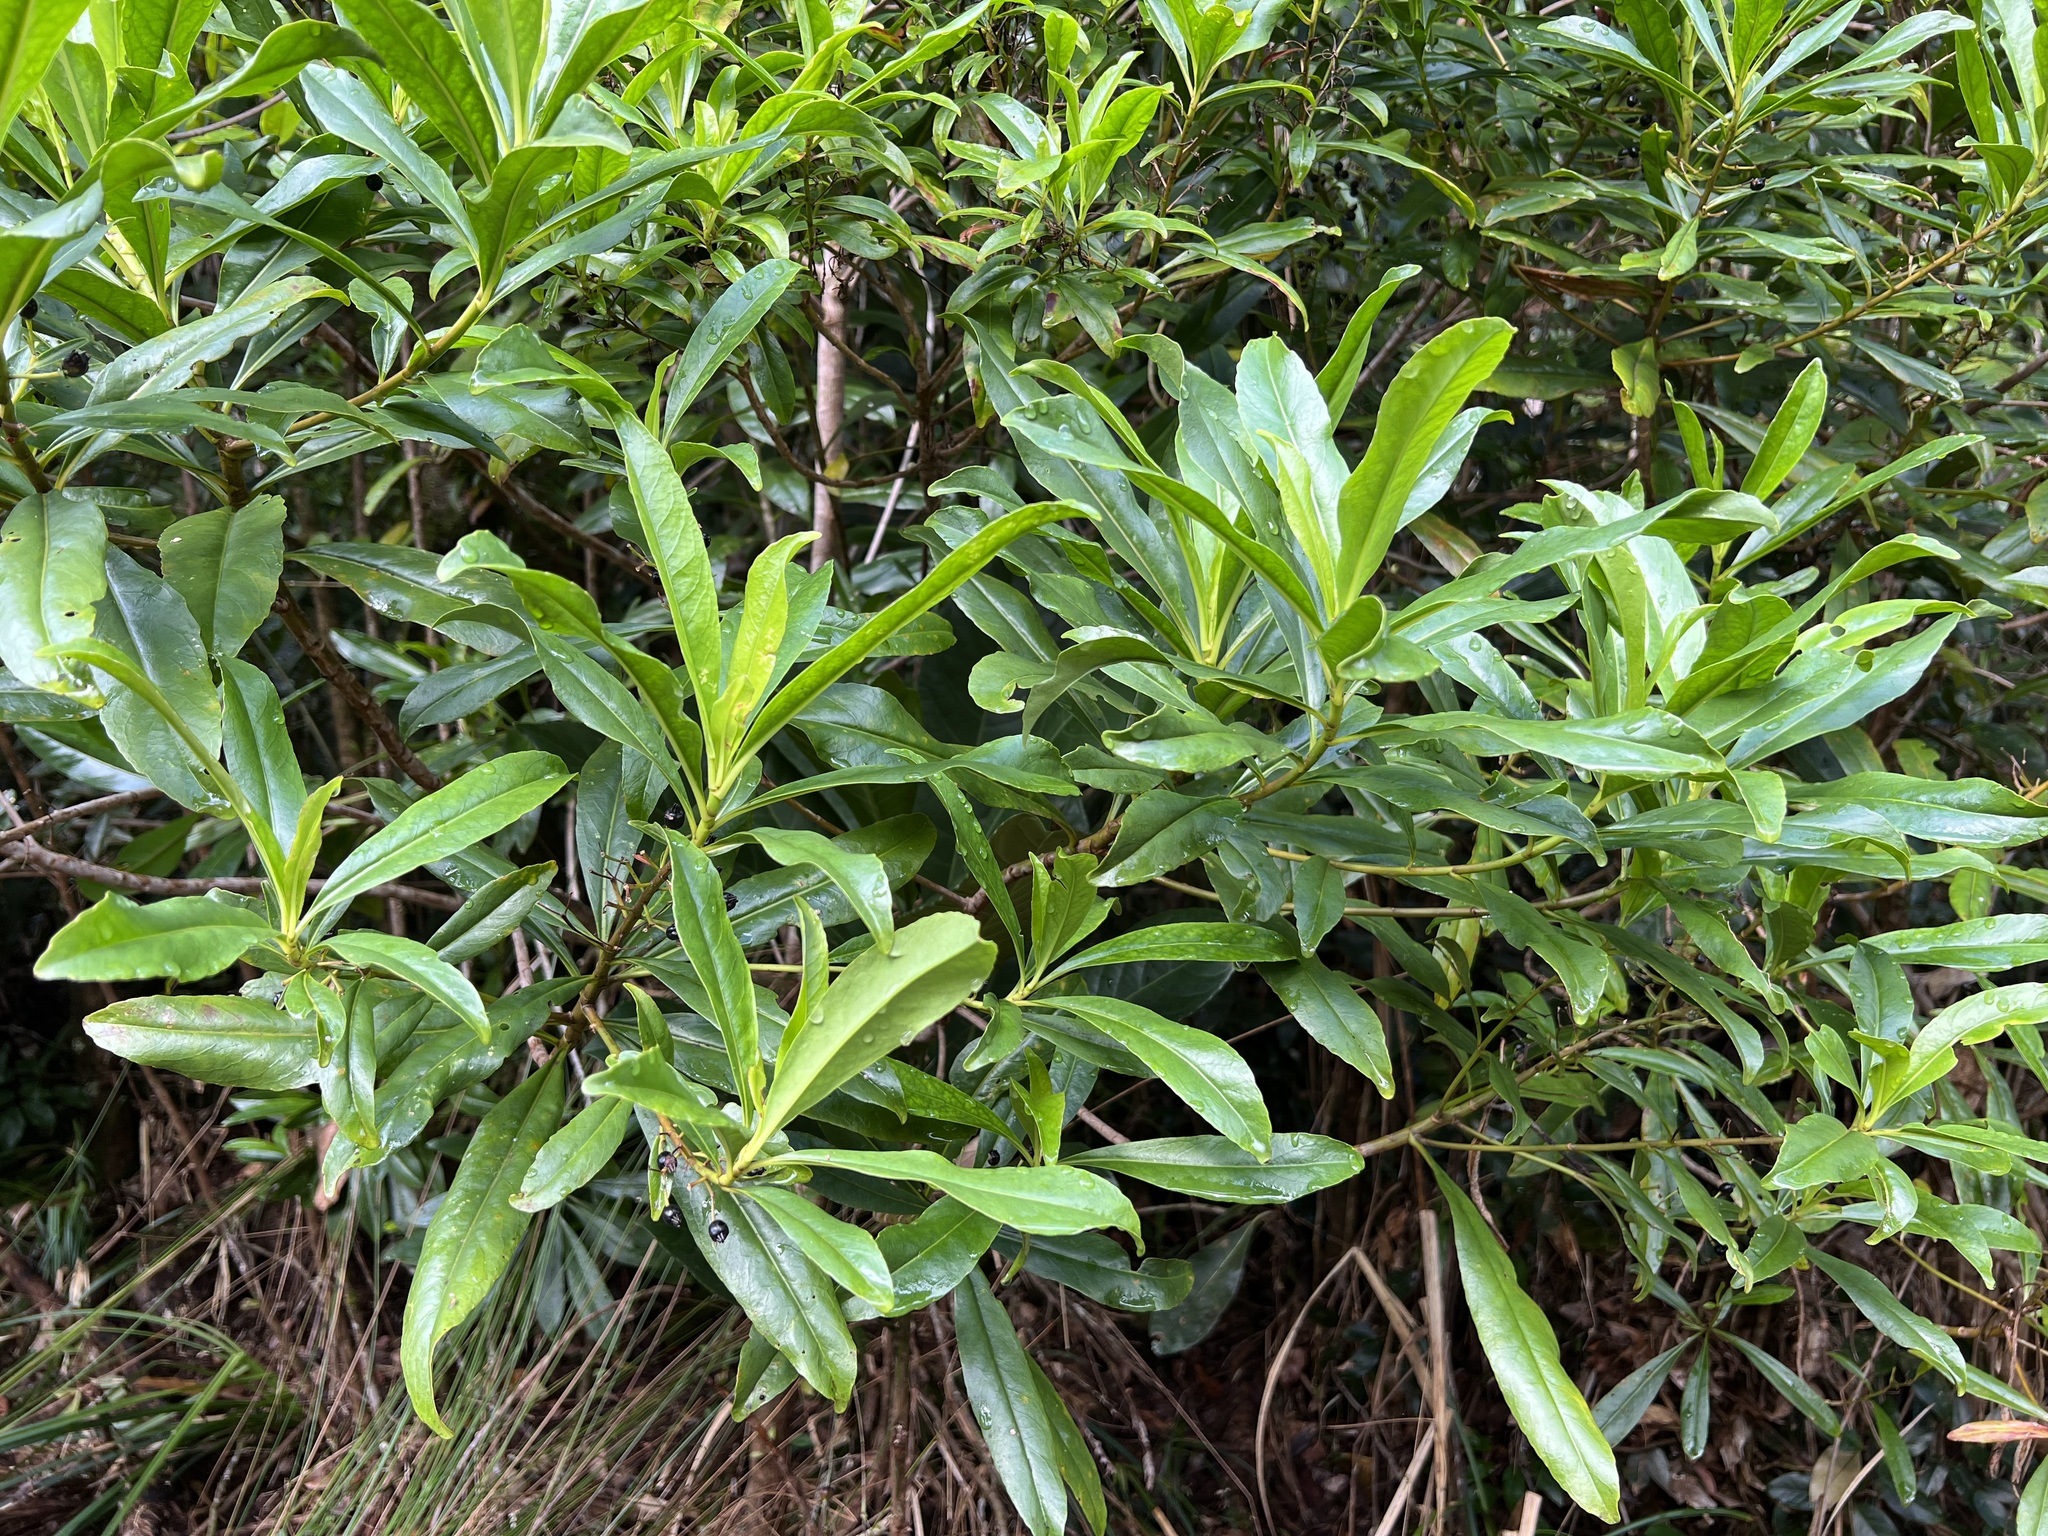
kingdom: Plantae
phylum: Tracheophyta
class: Magnoliopsida
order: Asterales
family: Goodeniaceae
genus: Scaevola
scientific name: Scaevola cylindrica
